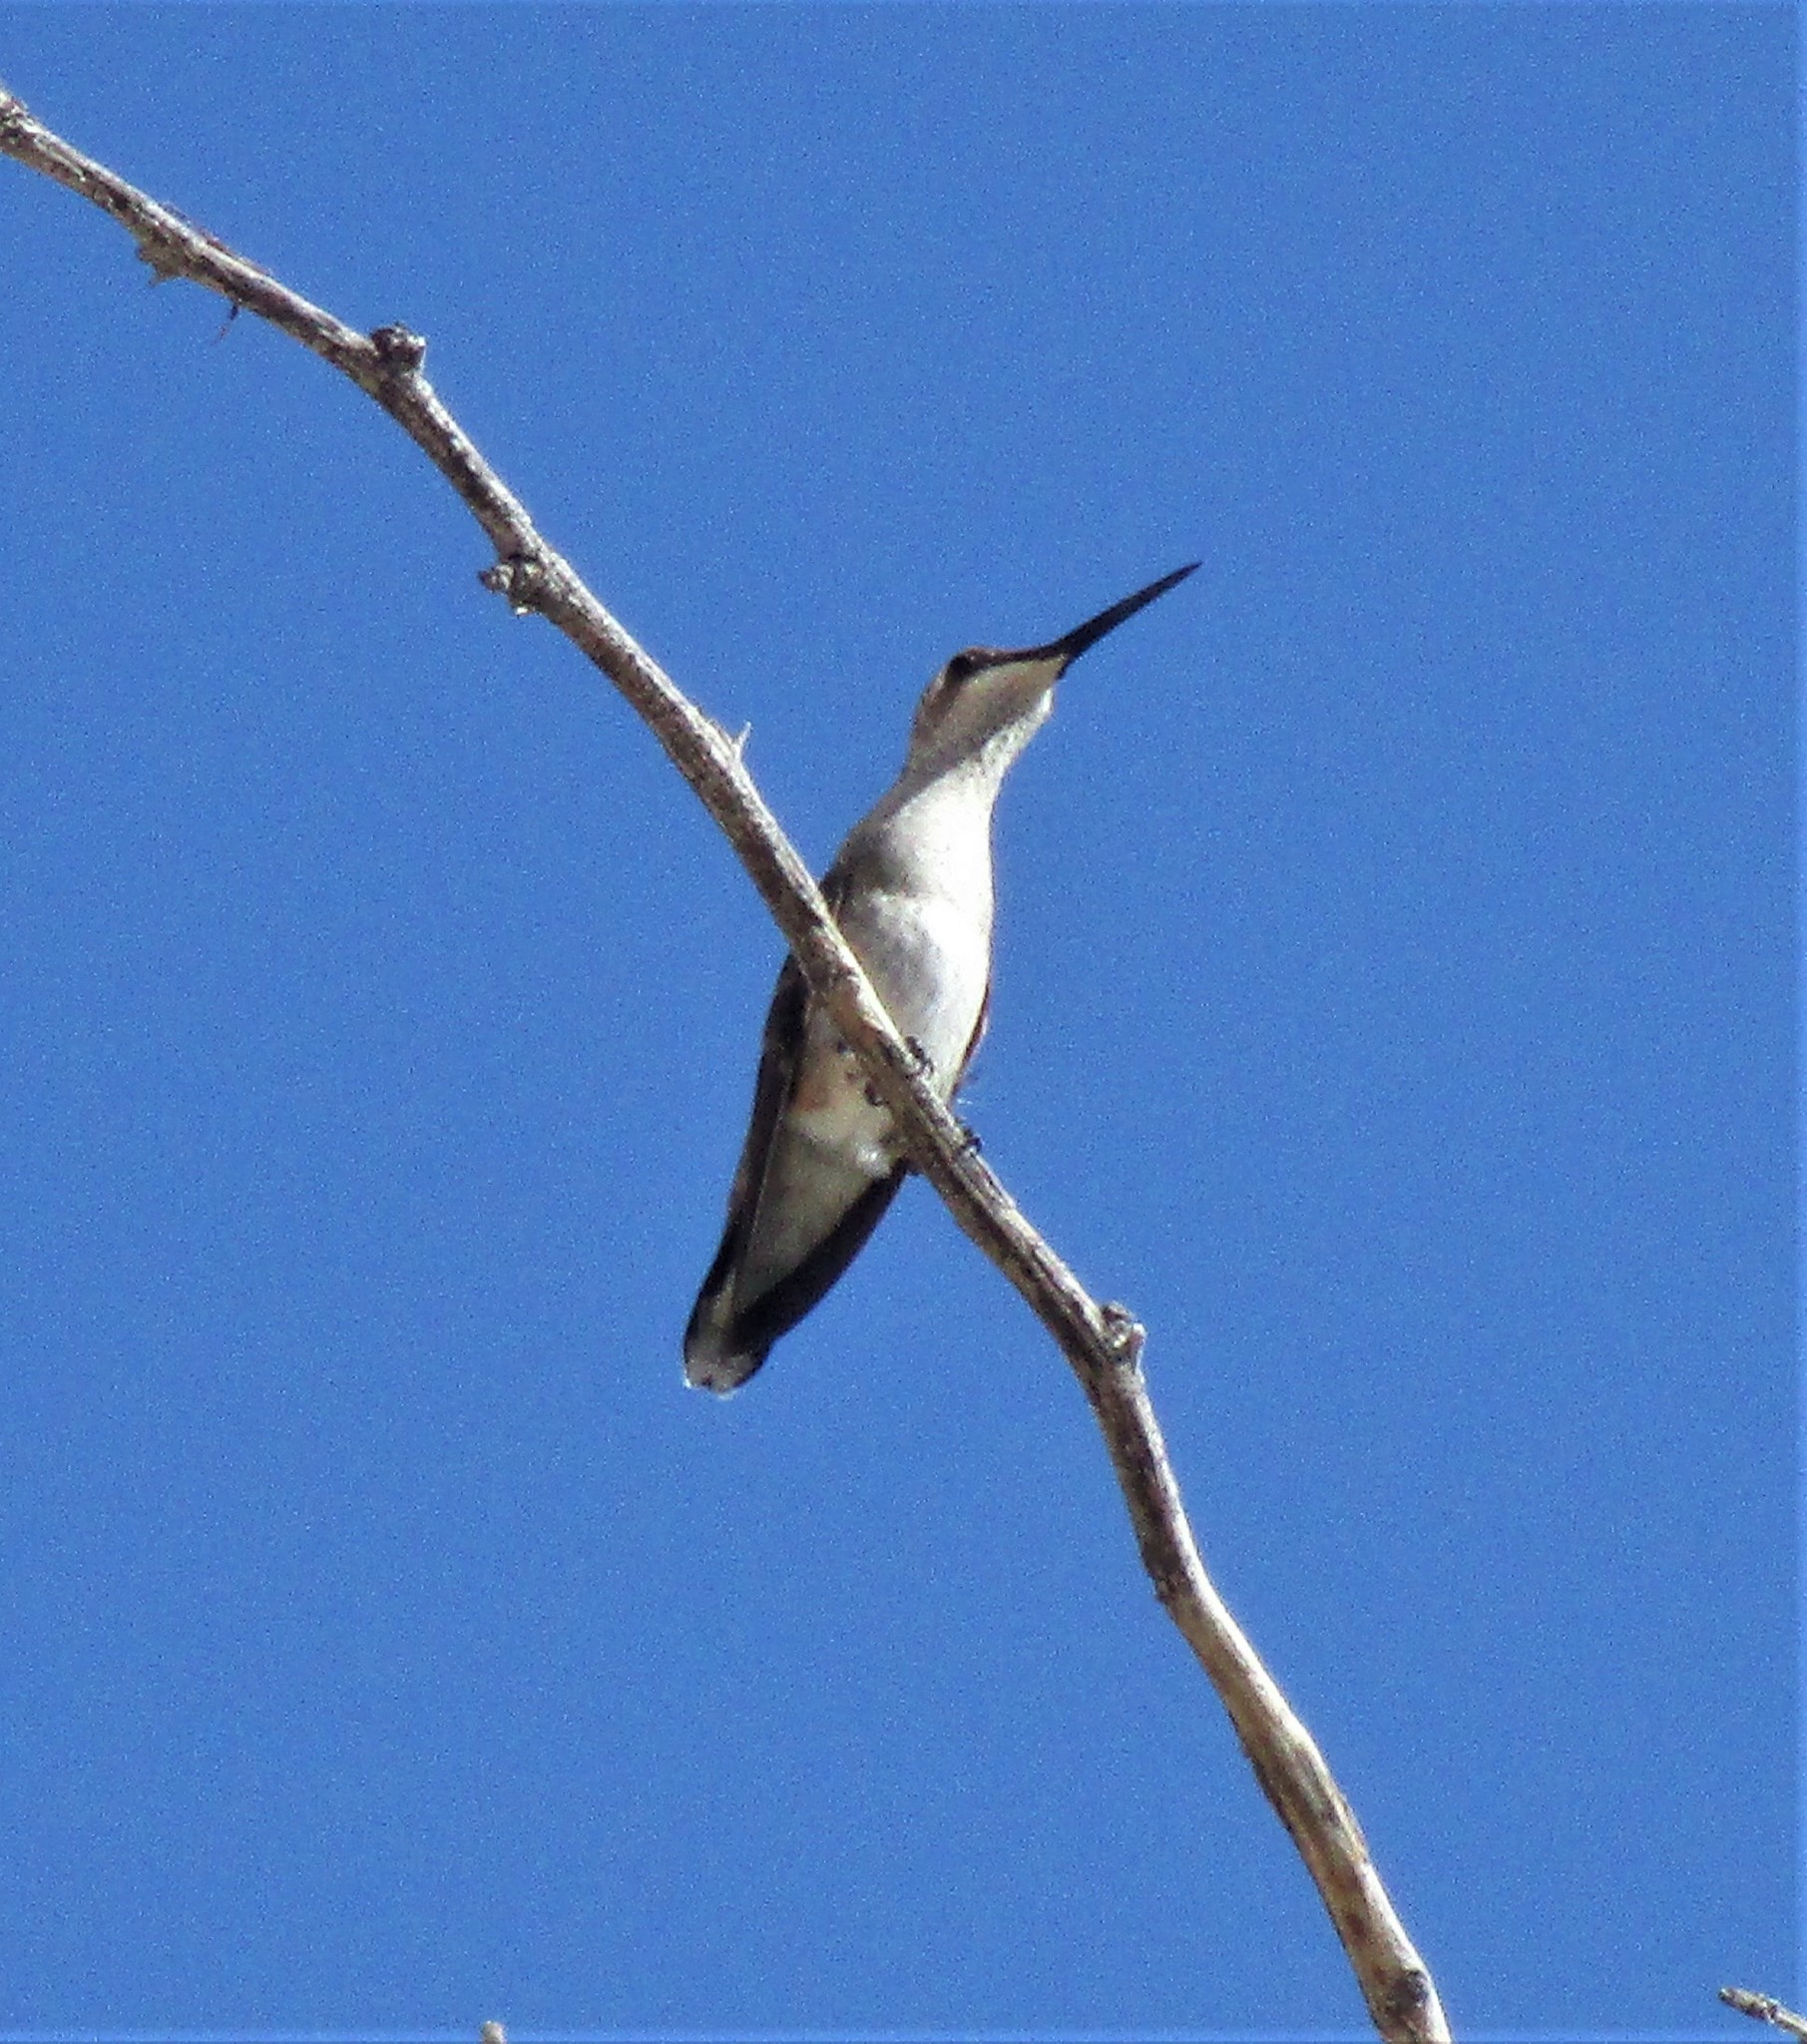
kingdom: Animalia
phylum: Chordata
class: Aves
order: Apodiformes
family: Trochilidae
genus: Archilochus
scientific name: Archilochus alexandri
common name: Black-chinned hummingbird
